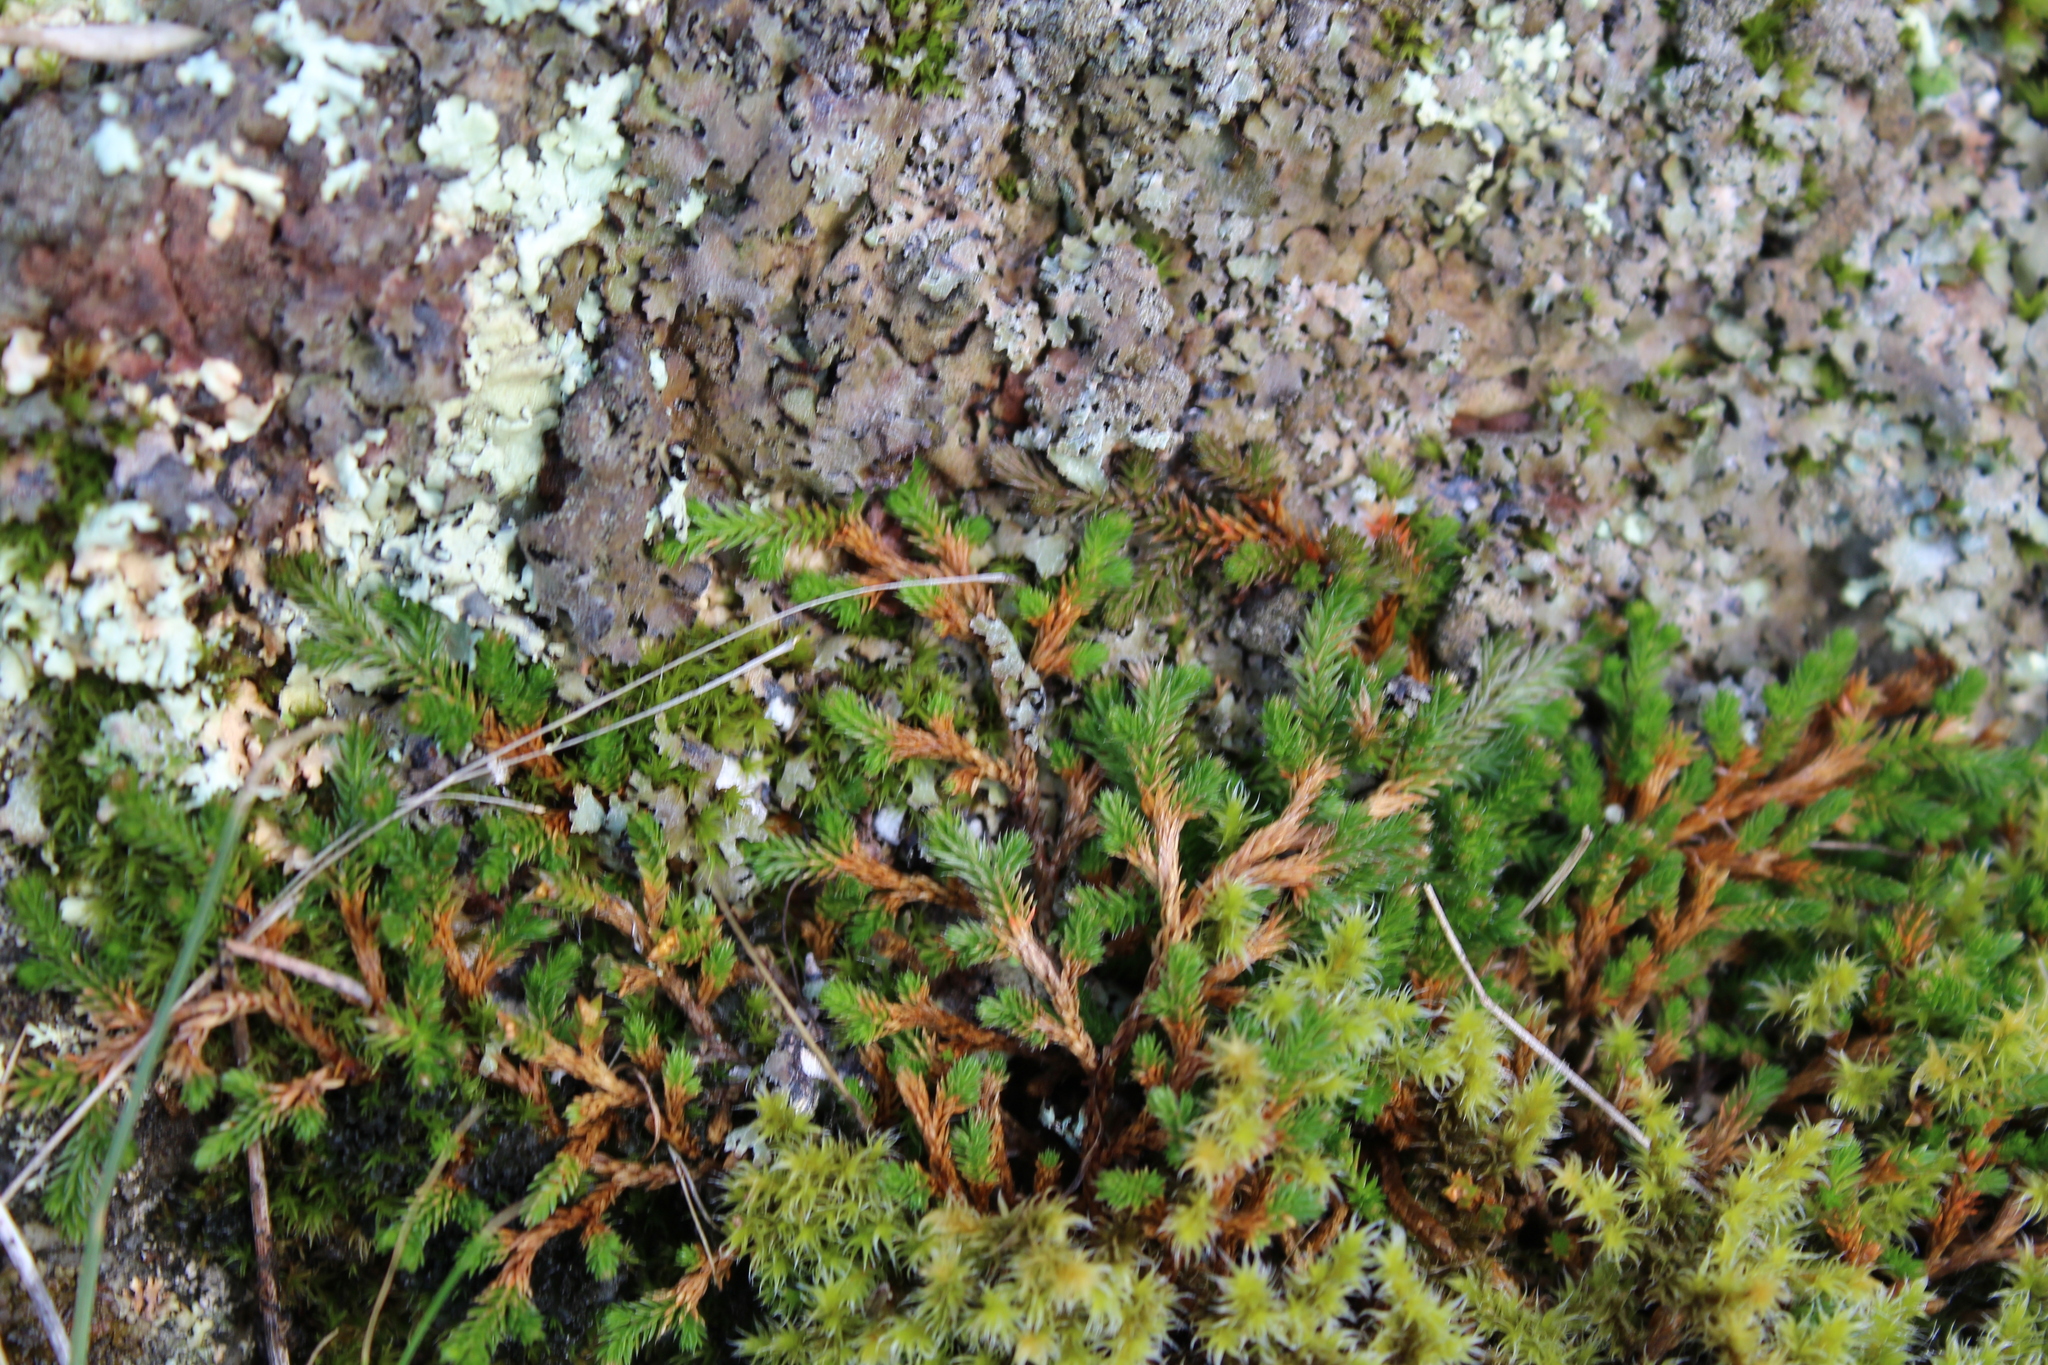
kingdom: Plantae
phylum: Tracheophyta
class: Lycopodiopsida
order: Selaginellales
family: Selaginellaceae
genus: Selaginella
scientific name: Selaginella wallacei
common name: Wallace's selaginella
